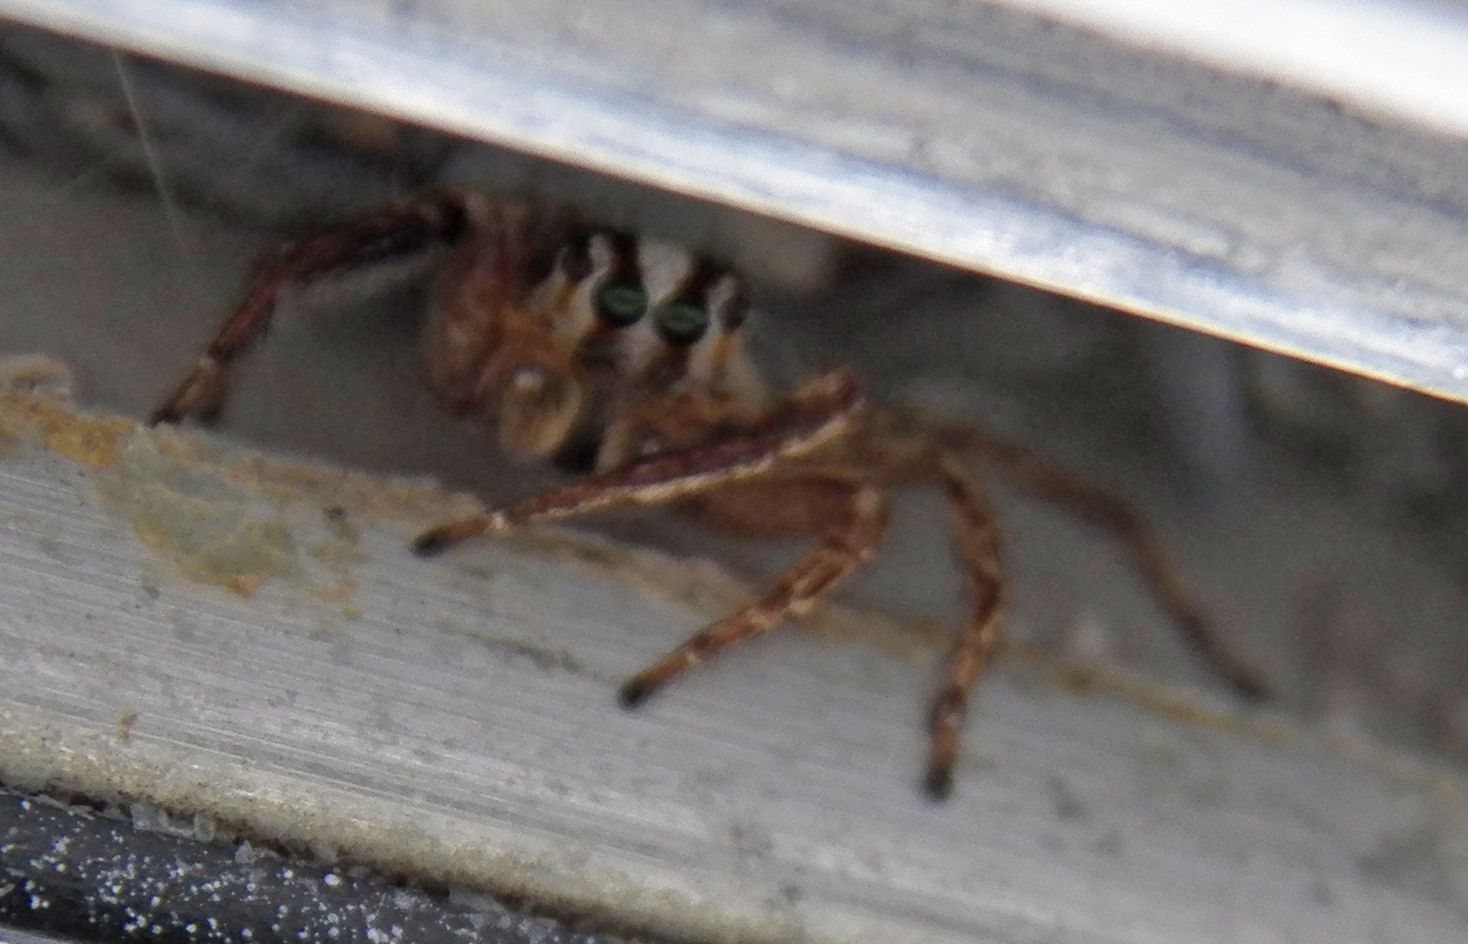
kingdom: Animalia
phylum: Arthropoda
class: Arachnida
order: Araneae
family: Salticidae
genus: Plexippus
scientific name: Plexippus paykulli
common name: Pantropical jumper
